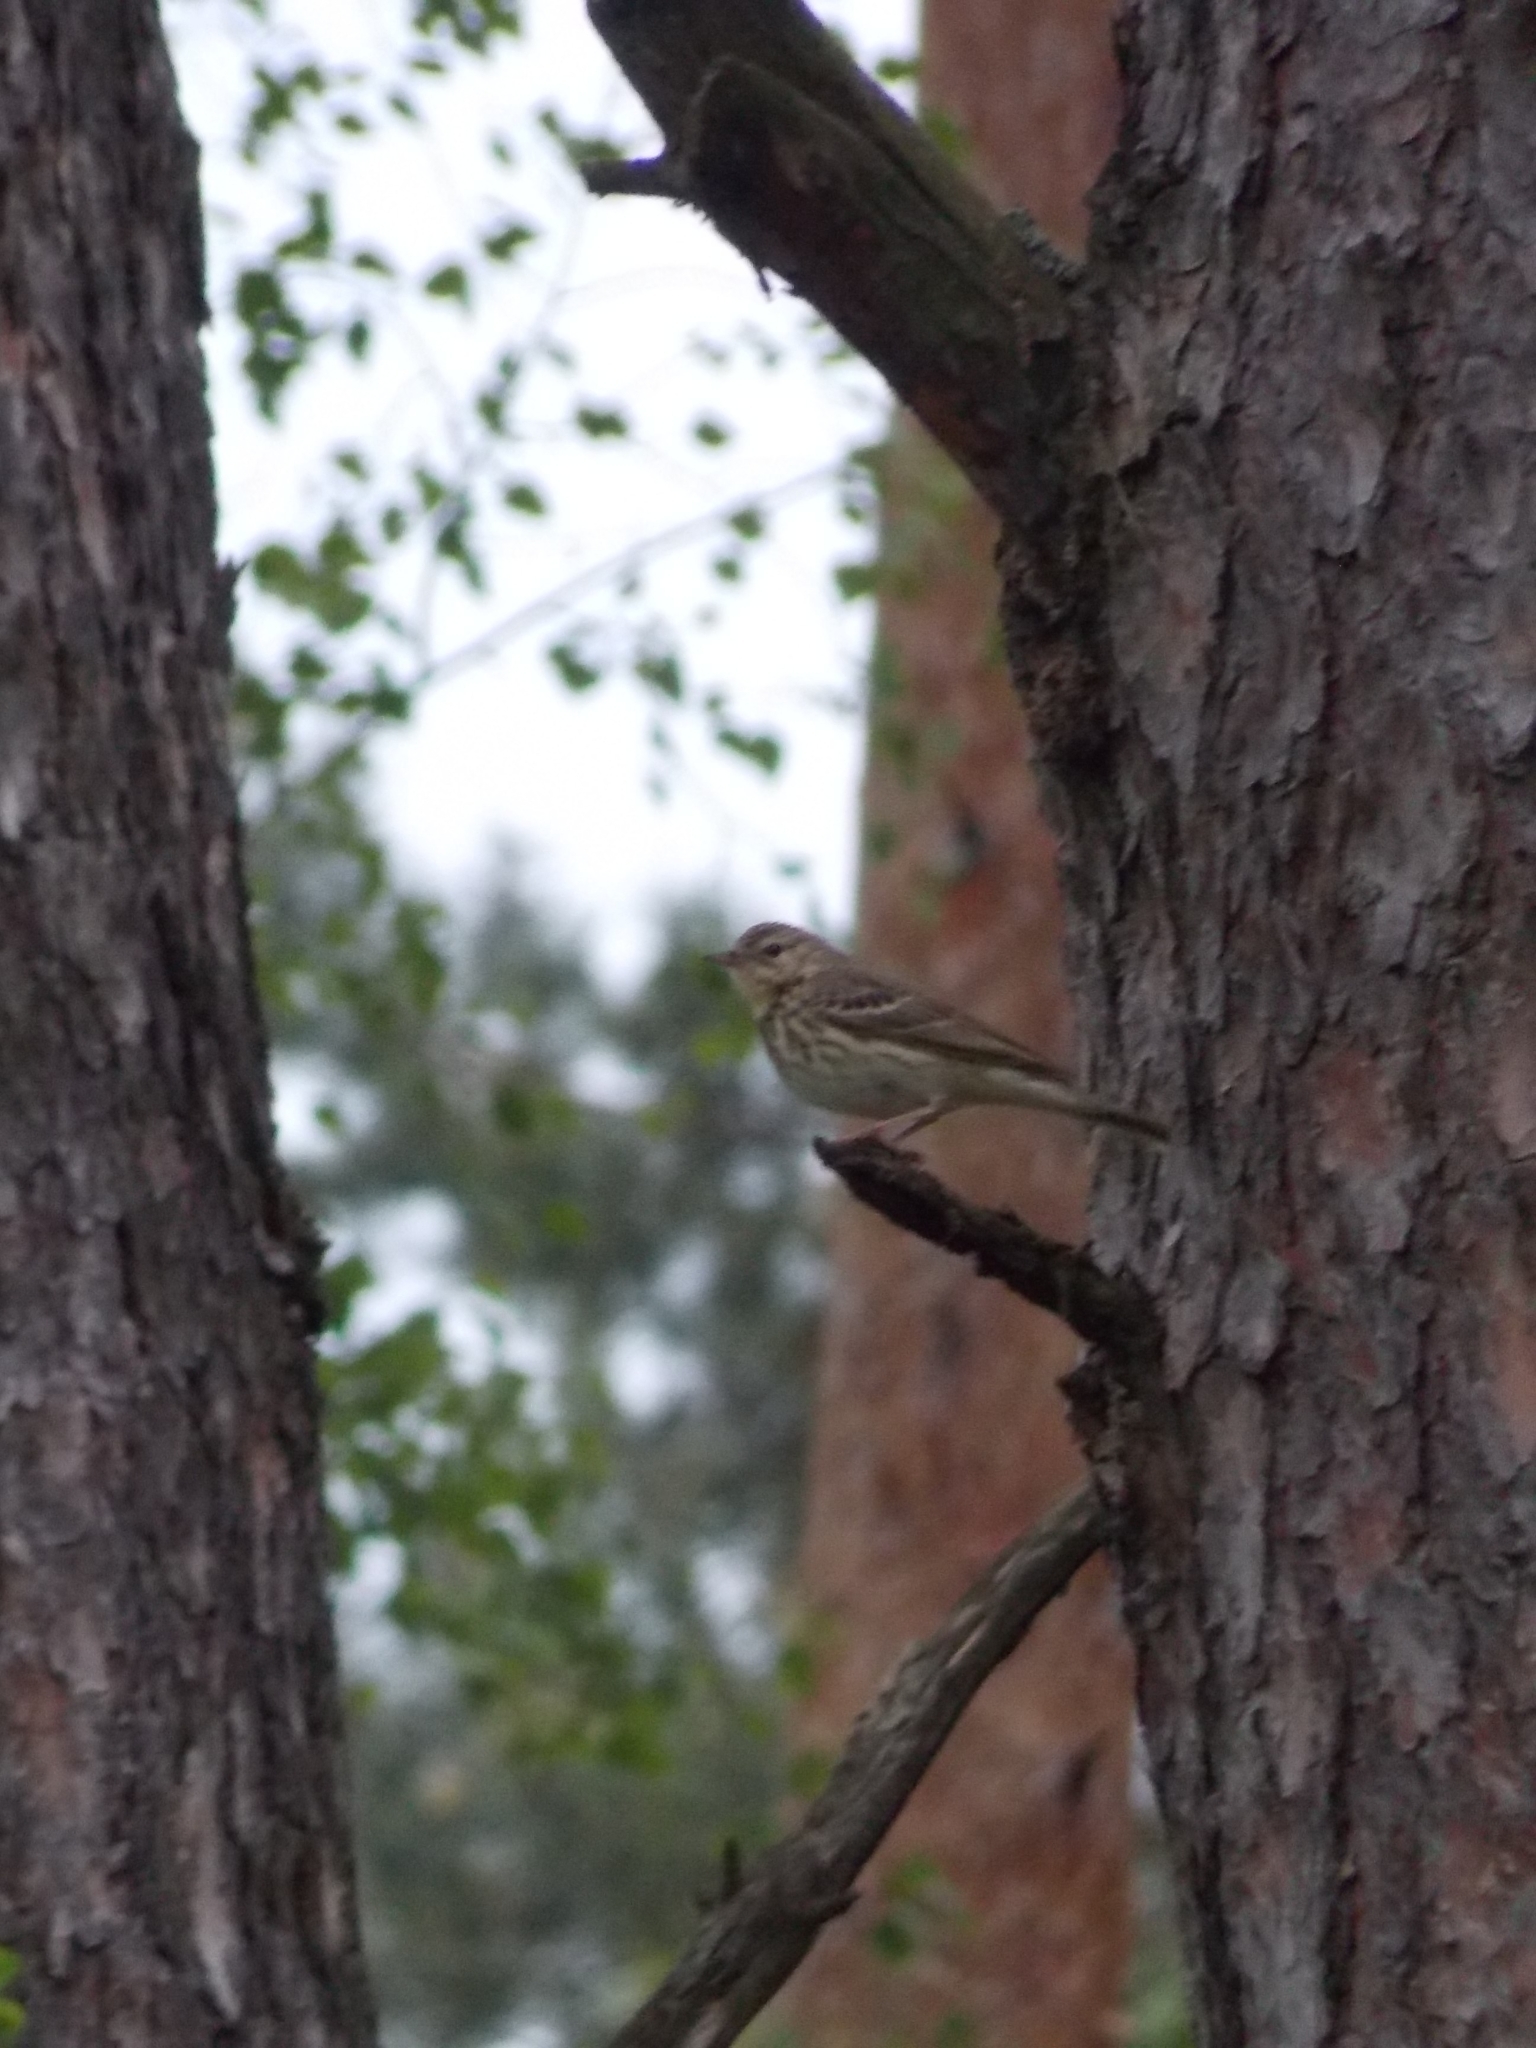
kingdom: Animalia
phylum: Chordata
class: Aves
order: Passeriformes
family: Motacillidae
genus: Anthus
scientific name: Anthus trivialis
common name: Tree pipit
